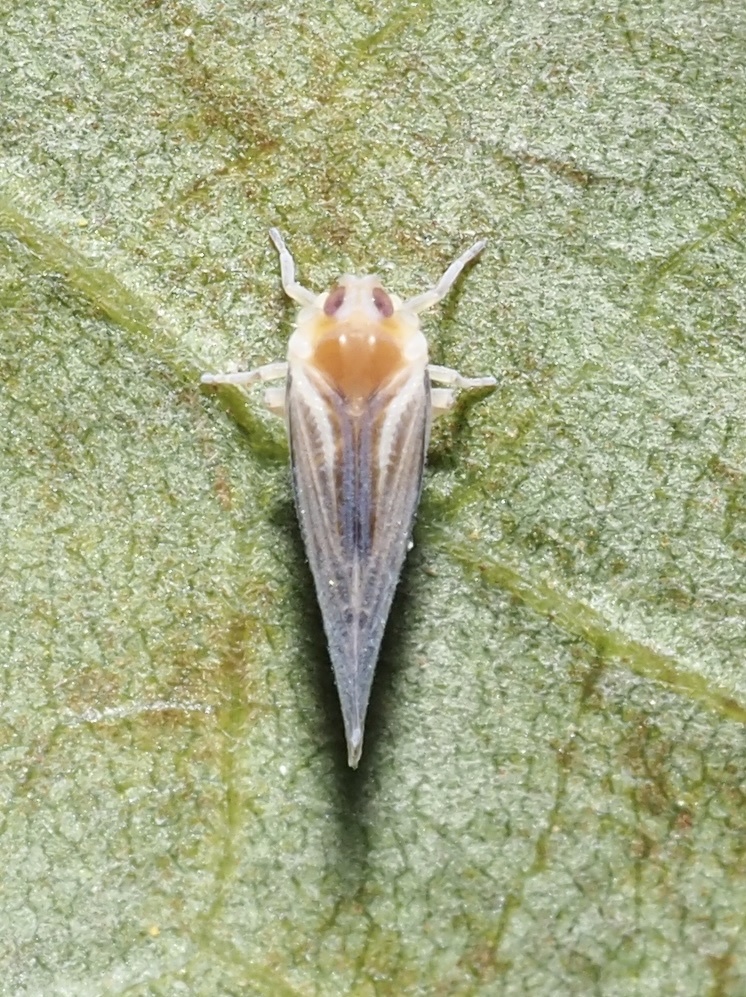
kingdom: Animalia
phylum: Arthropoda
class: Insecta
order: Hemiptera
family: Derbidae
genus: Omolicna
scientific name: Omolicna uhleri
